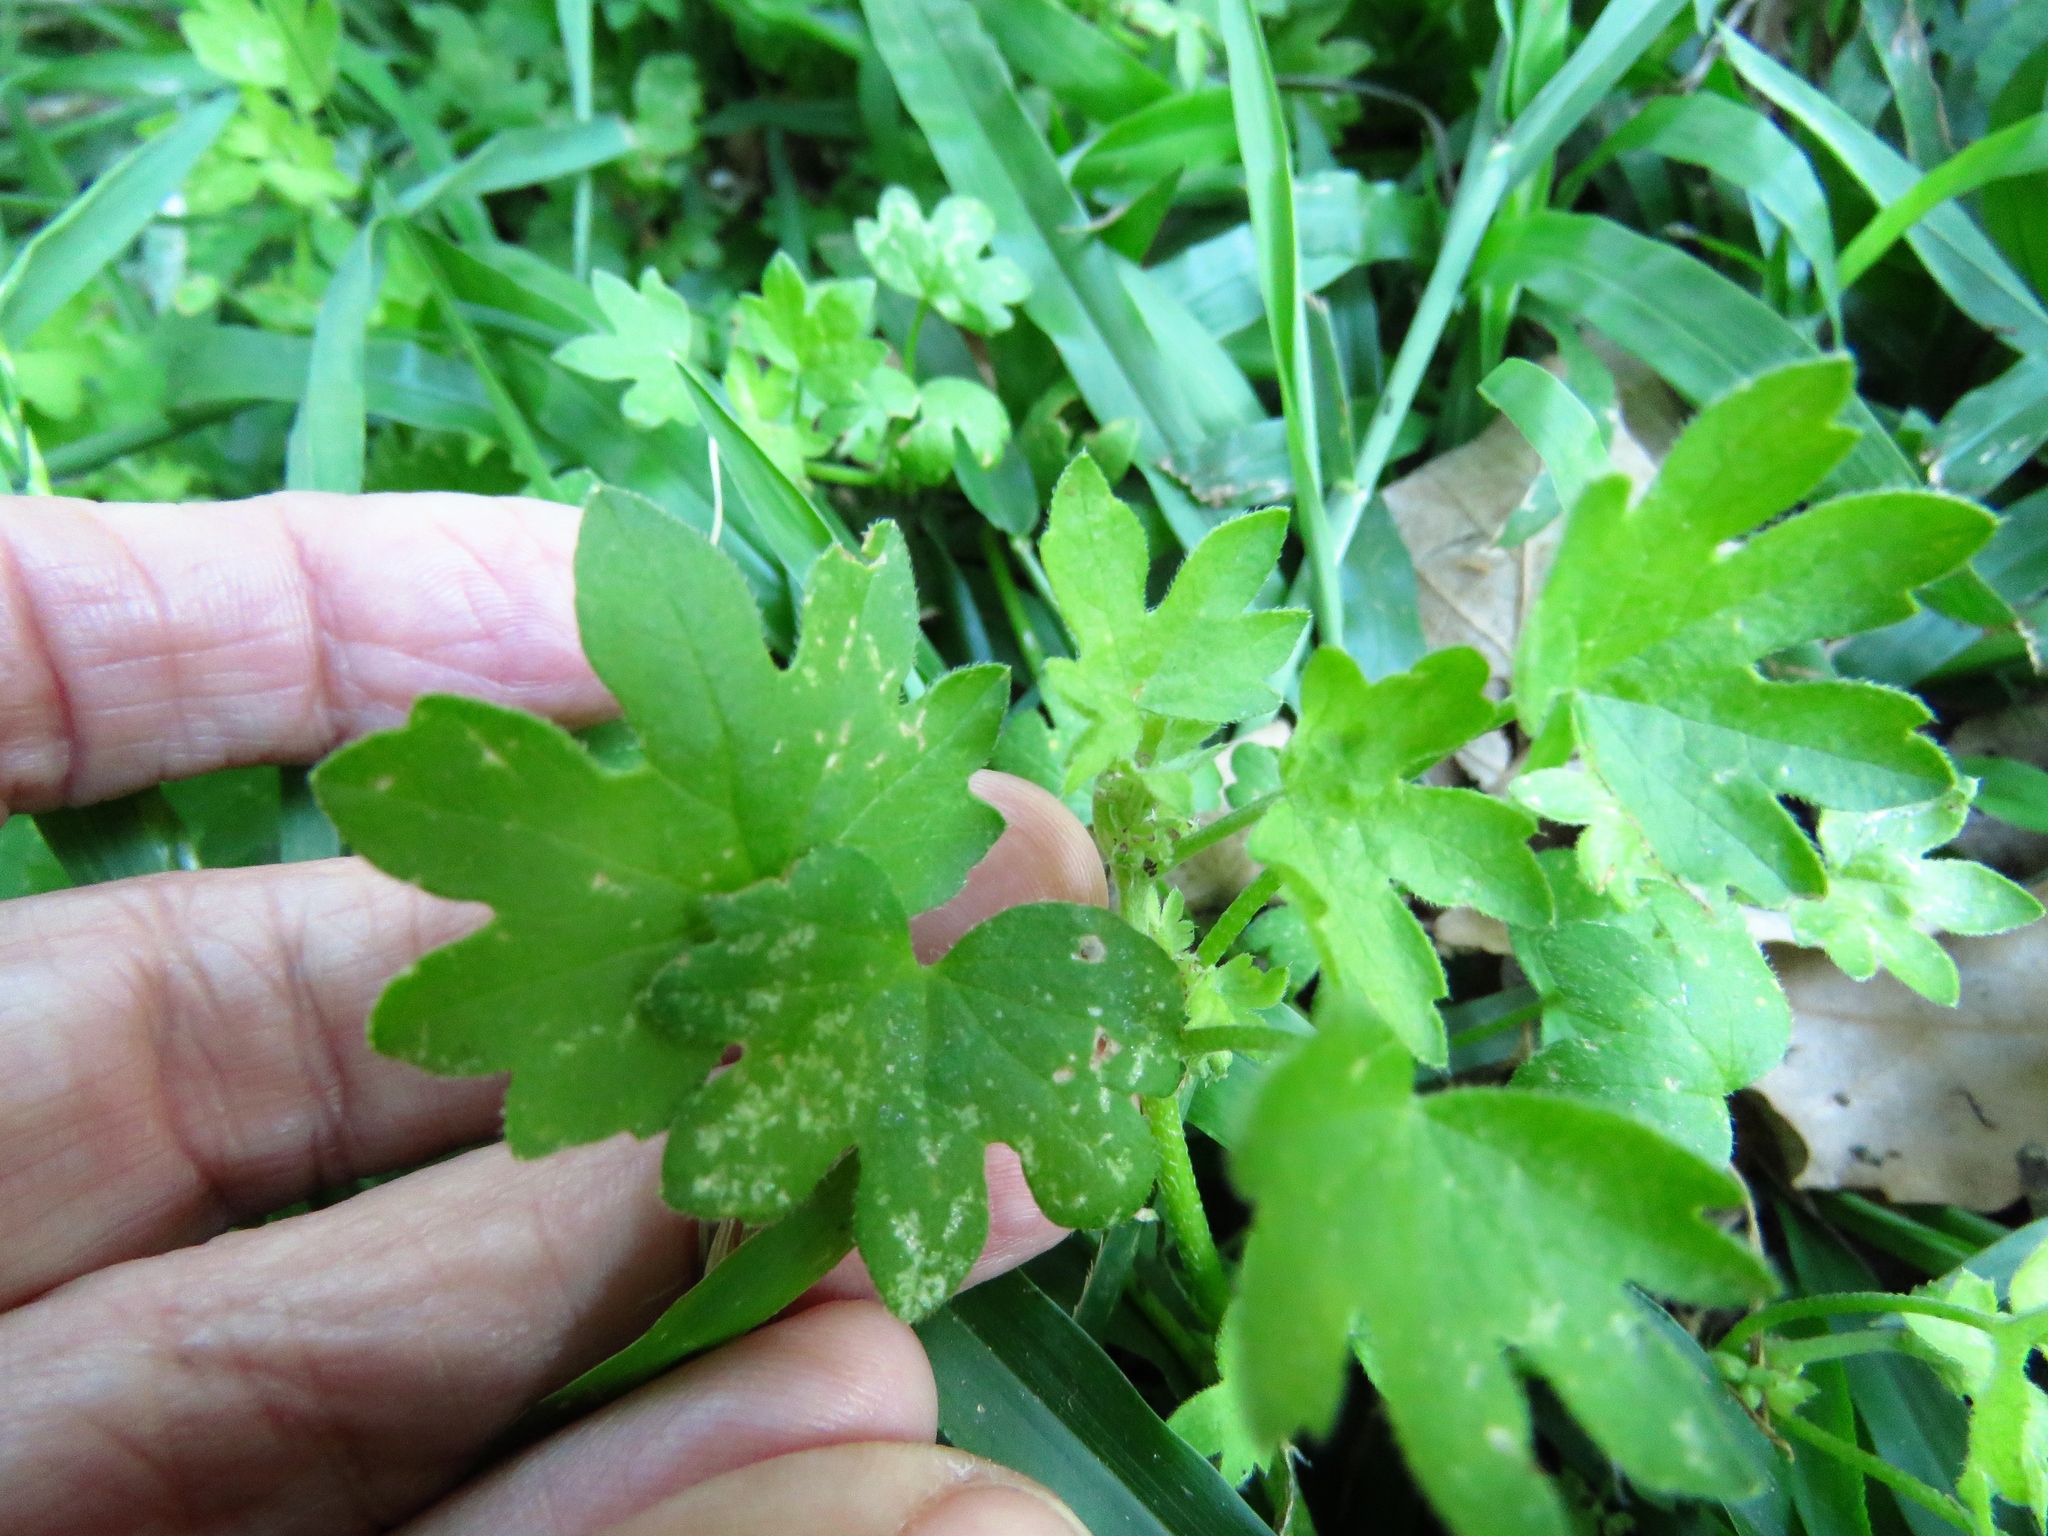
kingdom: Plantae
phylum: Tracheophyta
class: Magnoliopsida
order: Apiales
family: Apiaceae
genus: Bowlesia
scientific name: Bowlesia incana
